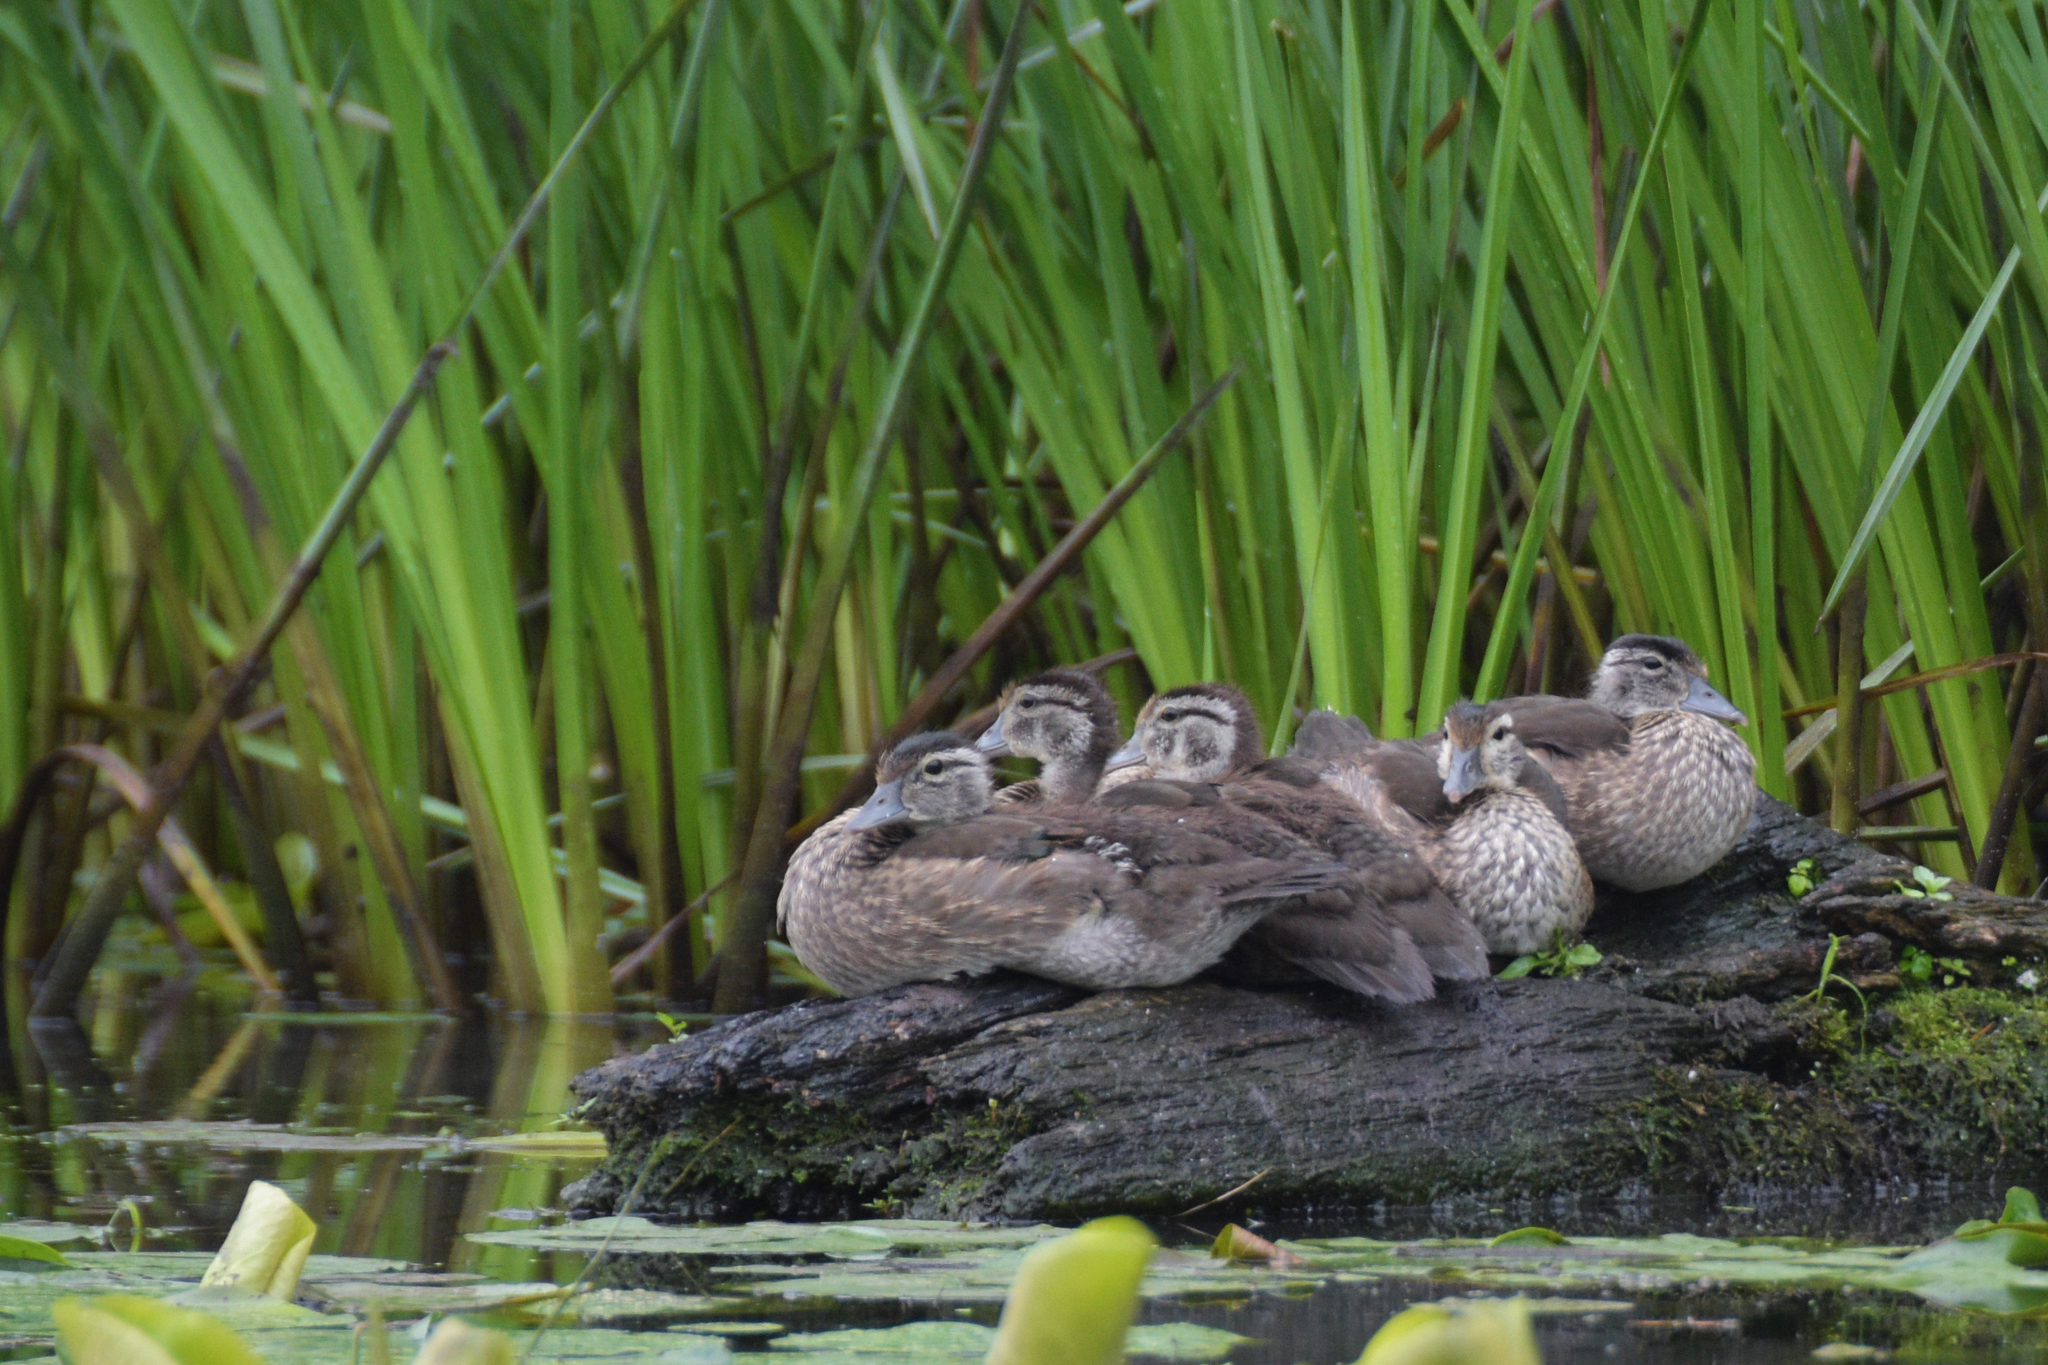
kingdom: Animalia
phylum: Chordata
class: Aves
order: Anseriformes
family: Anatidae
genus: Aix
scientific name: Aix sponsa
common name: Wood duck
